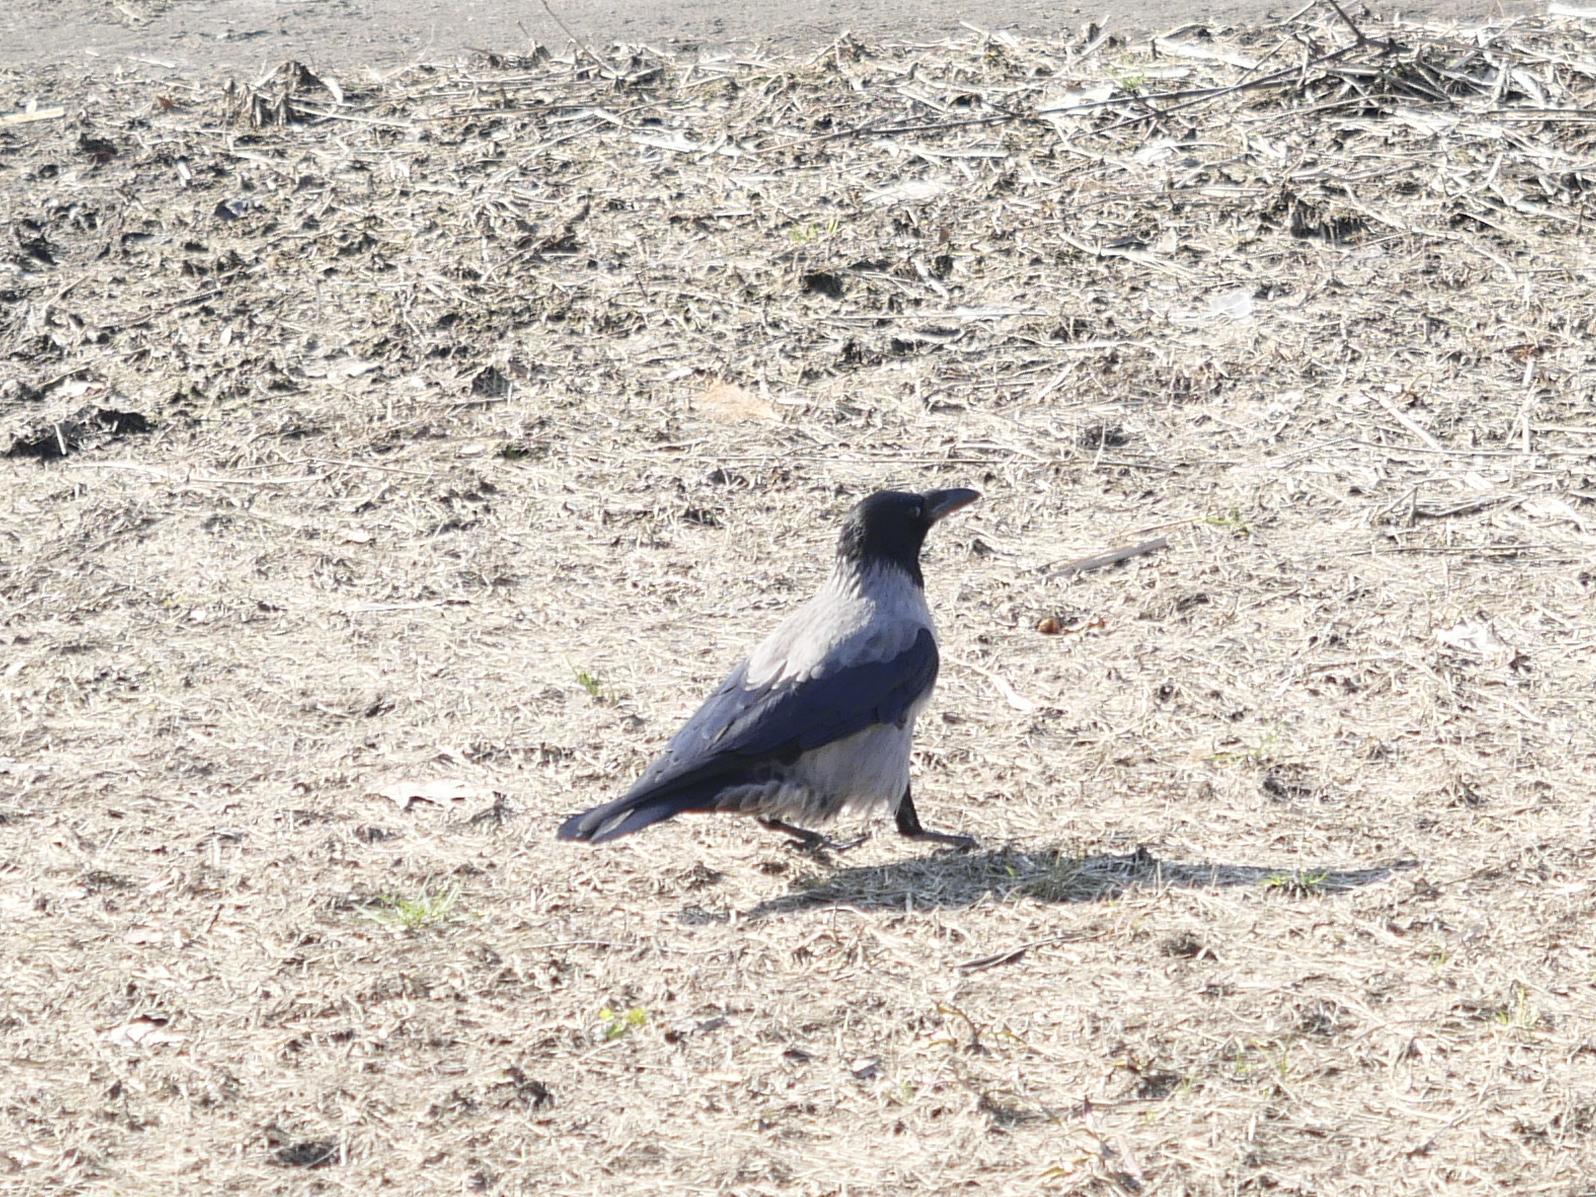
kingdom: Animalia
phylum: Chordata
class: Aves
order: Passeriformes
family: Corvidae
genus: Corvus
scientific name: Corvus cornix
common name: Hooded crow
